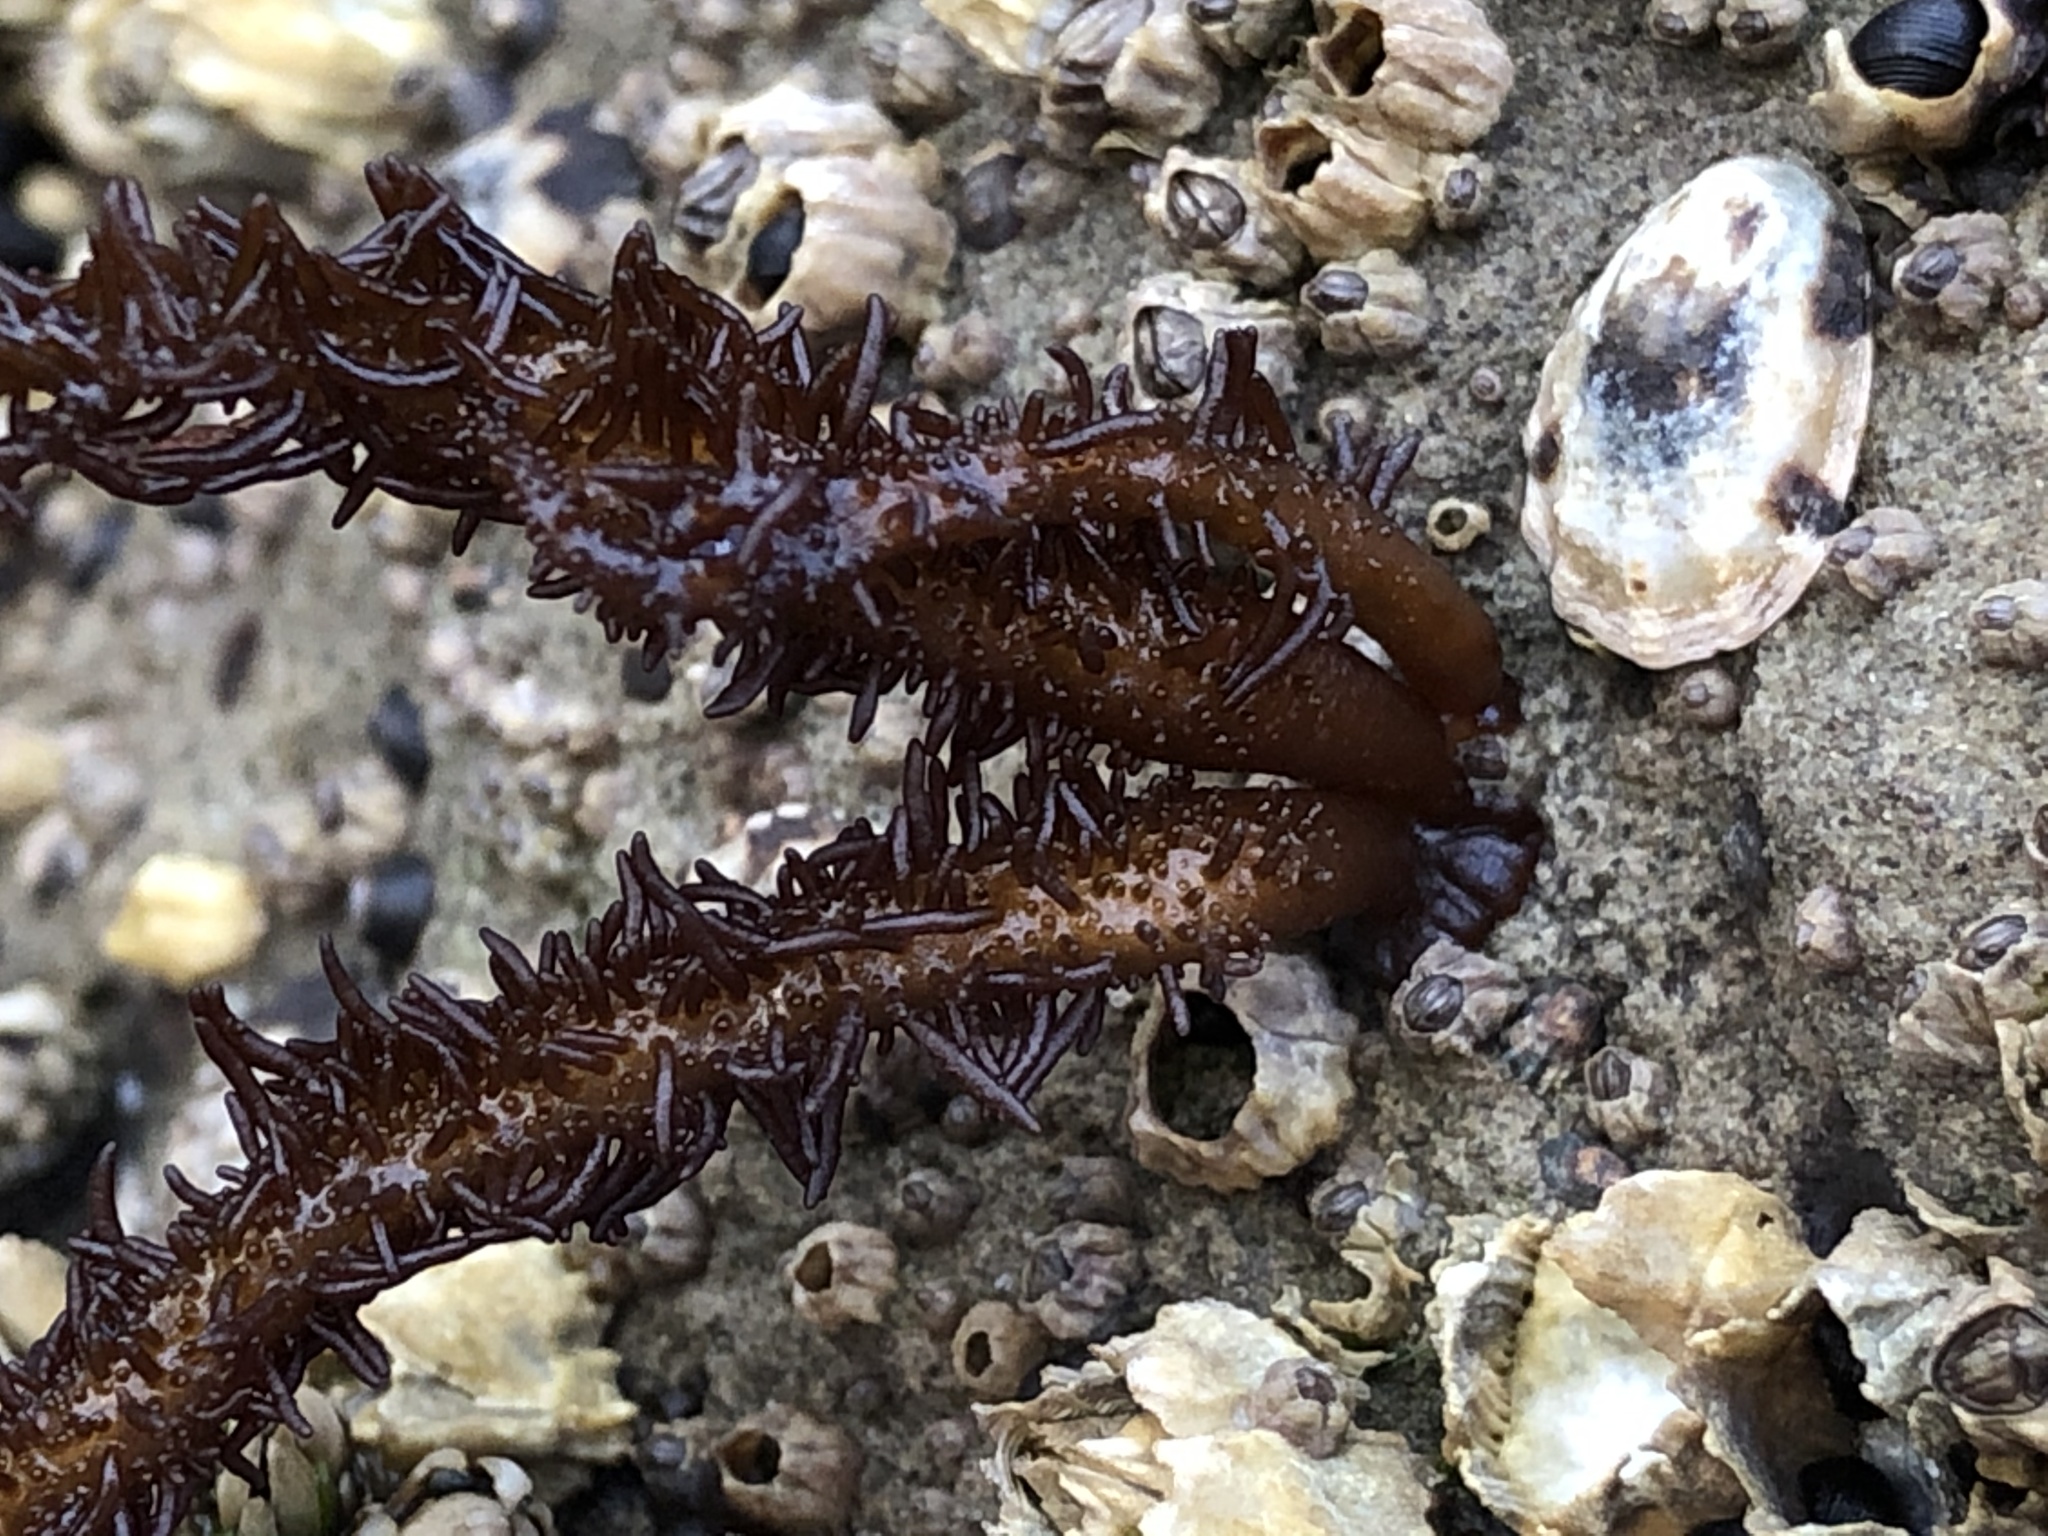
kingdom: Plantae
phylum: Rhodophyta
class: Florideophyceae
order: Nemaliales
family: Liagoraceae
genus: Cumagloia
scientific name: Cumagloia andersonii
